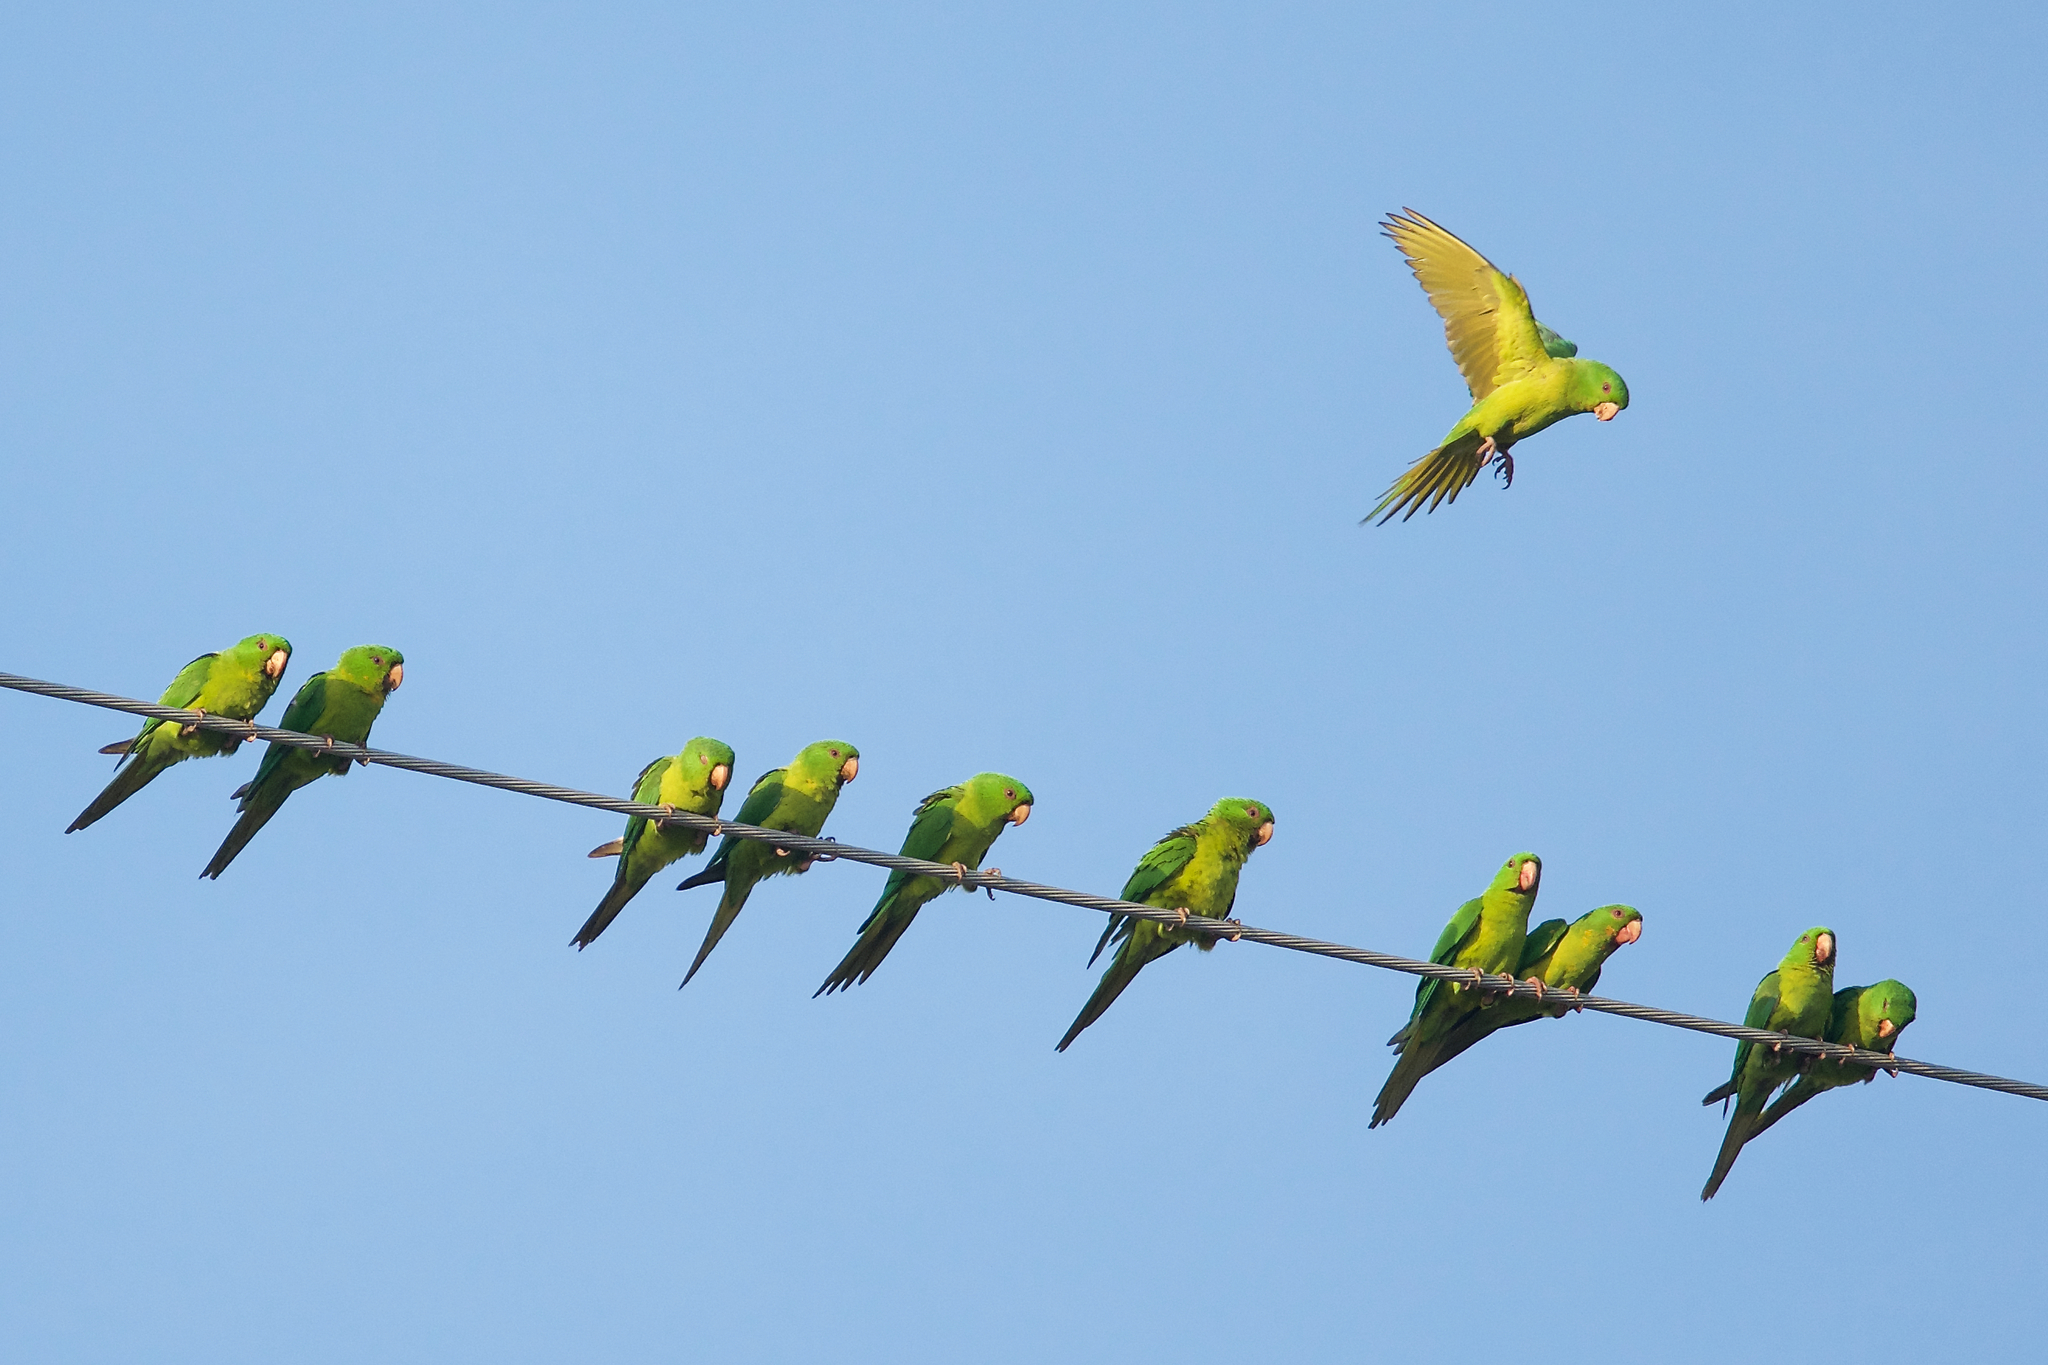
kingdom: Animalia
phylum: Chordata
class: Aves
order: Psittaciformes
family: Psittacidae
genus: Aratinga
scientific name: Aratinga holochlora
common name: Green parakeet
